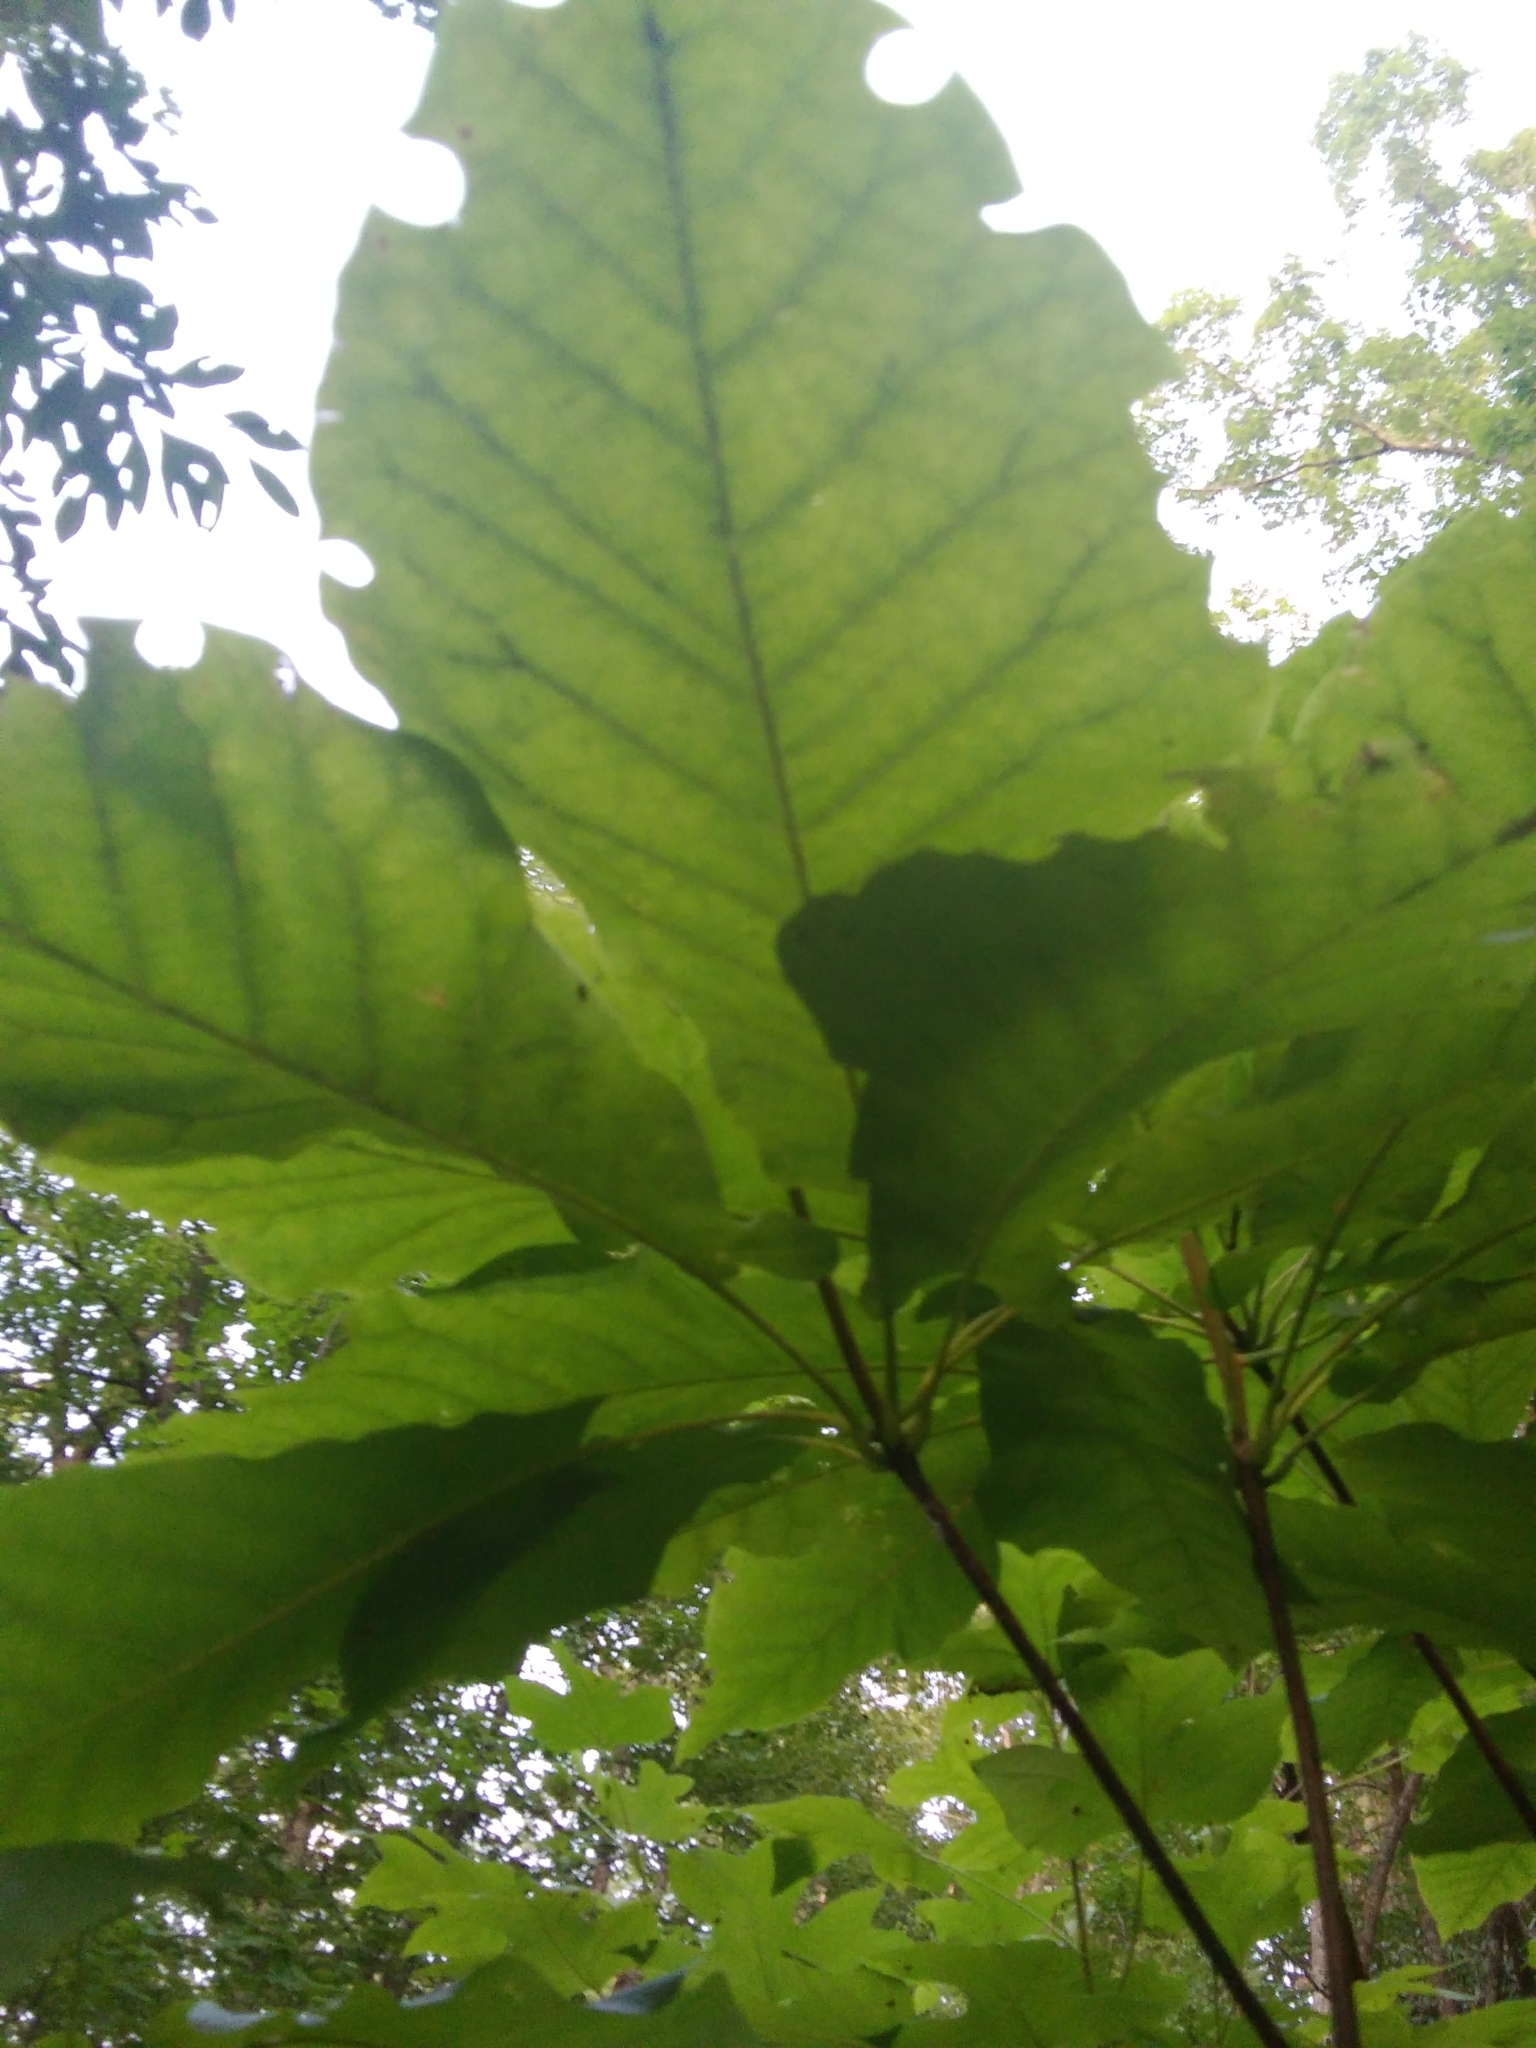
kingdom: Plantae
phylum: Tracheophyta
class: Magnoliopsida
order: Magnoliales
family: Magnoliaceae
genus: Magnolia
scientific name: Magnolia fraseri
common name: Fraser's magnolia
